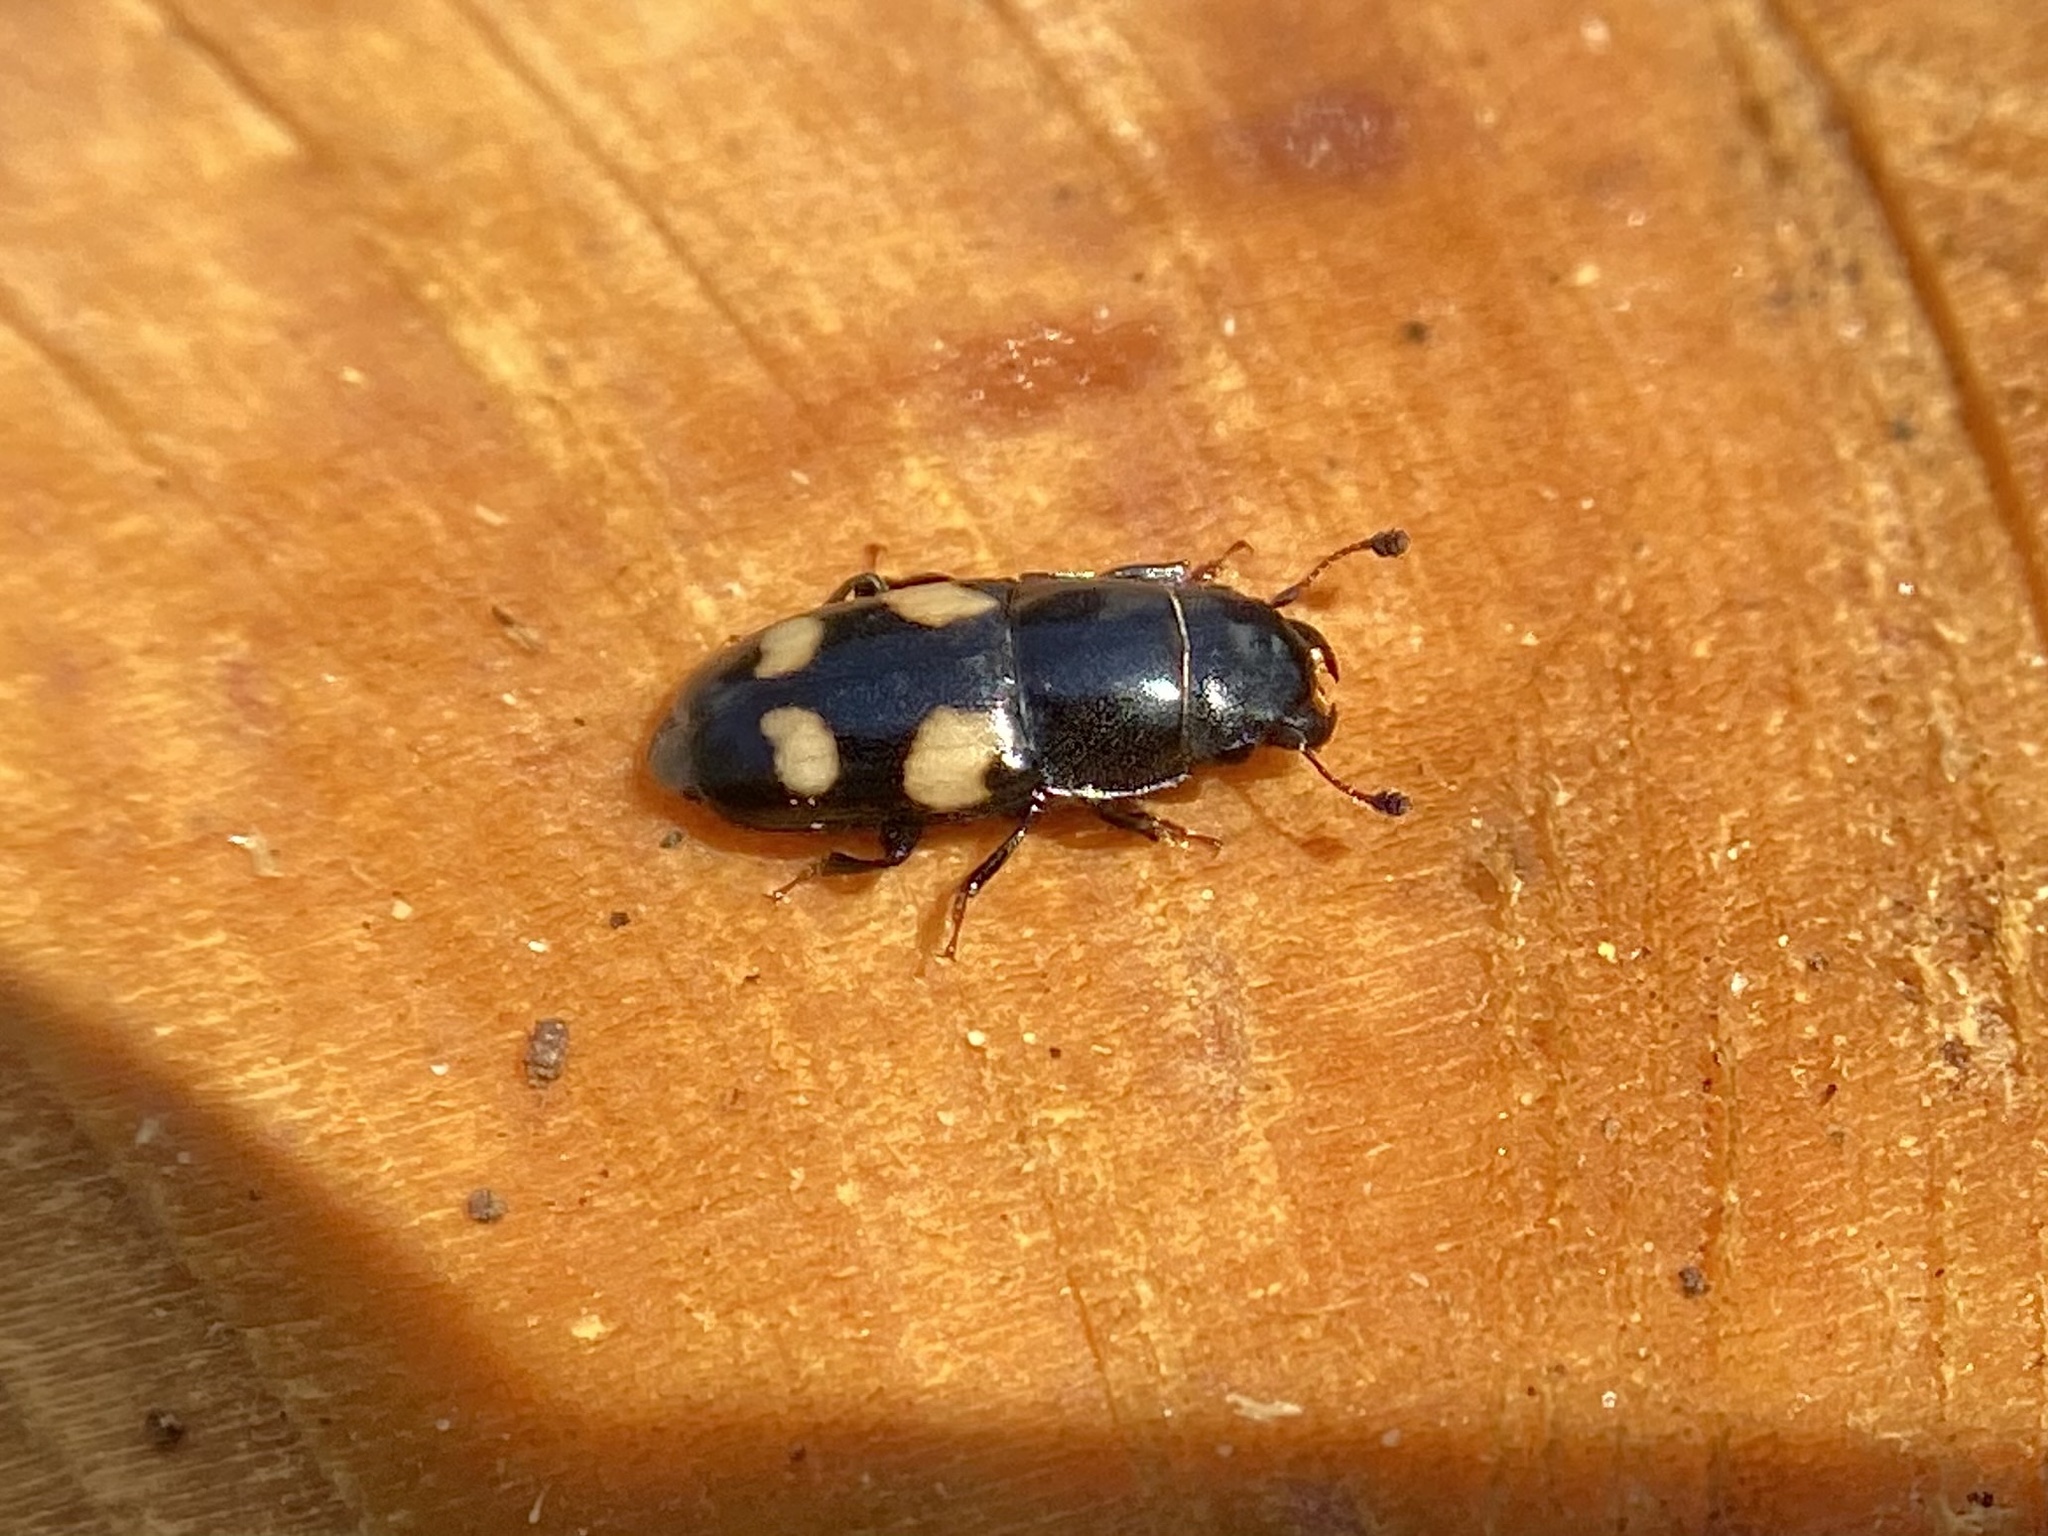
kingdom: Animalia
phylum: Arthropoda
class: Insecta
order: Coleoptera
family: Nitidulidae
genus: Glischrochilus
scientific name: Glischrochilus quadrisignatus
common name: Picnic beetle
